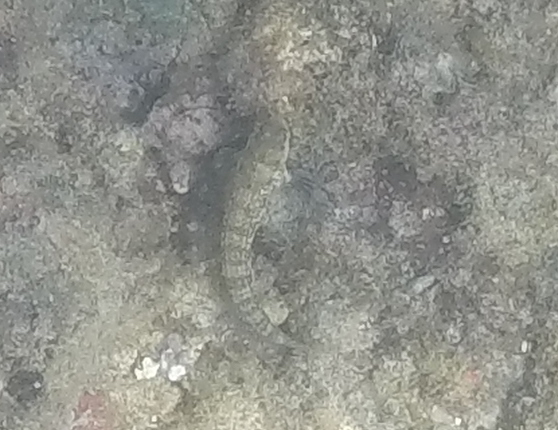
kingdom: Animalia
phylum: Chordata
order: Perciformes
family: Blenniidae
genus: Blenniella
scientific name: Blenniella gibbifrons
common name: Picture rockskipper
